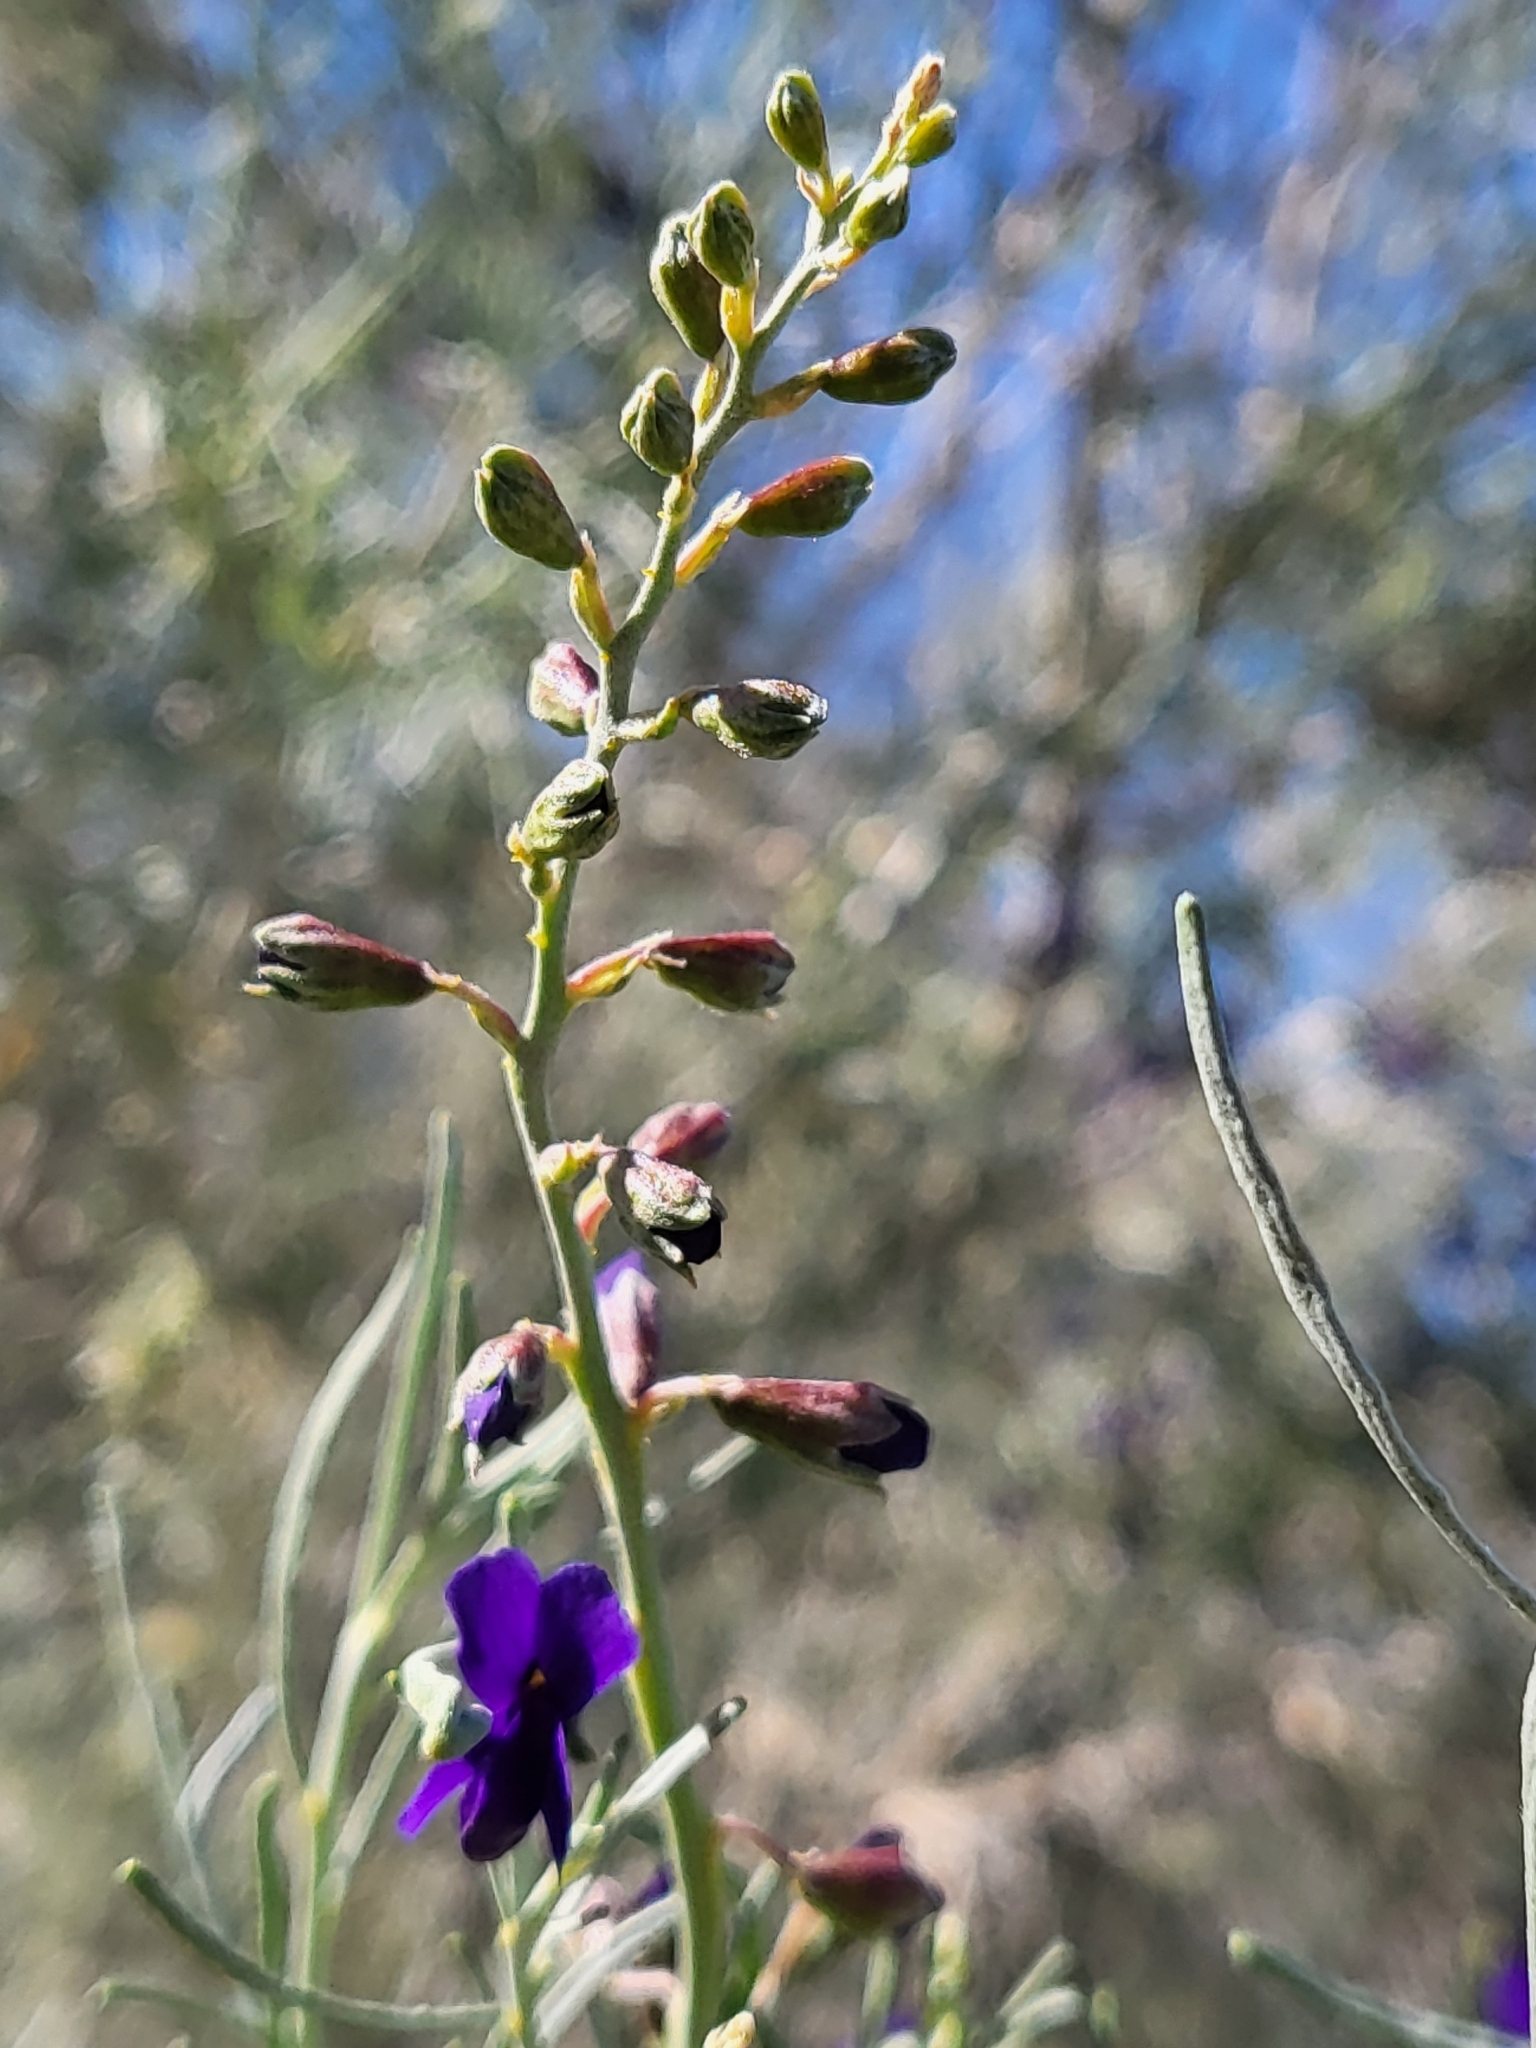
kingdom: Plantae
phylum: Tracheophyta
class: Magnoliopsida
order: Fabales
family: Fabaceae
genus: Psorothamnus
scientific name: Psorothamnus schottii
